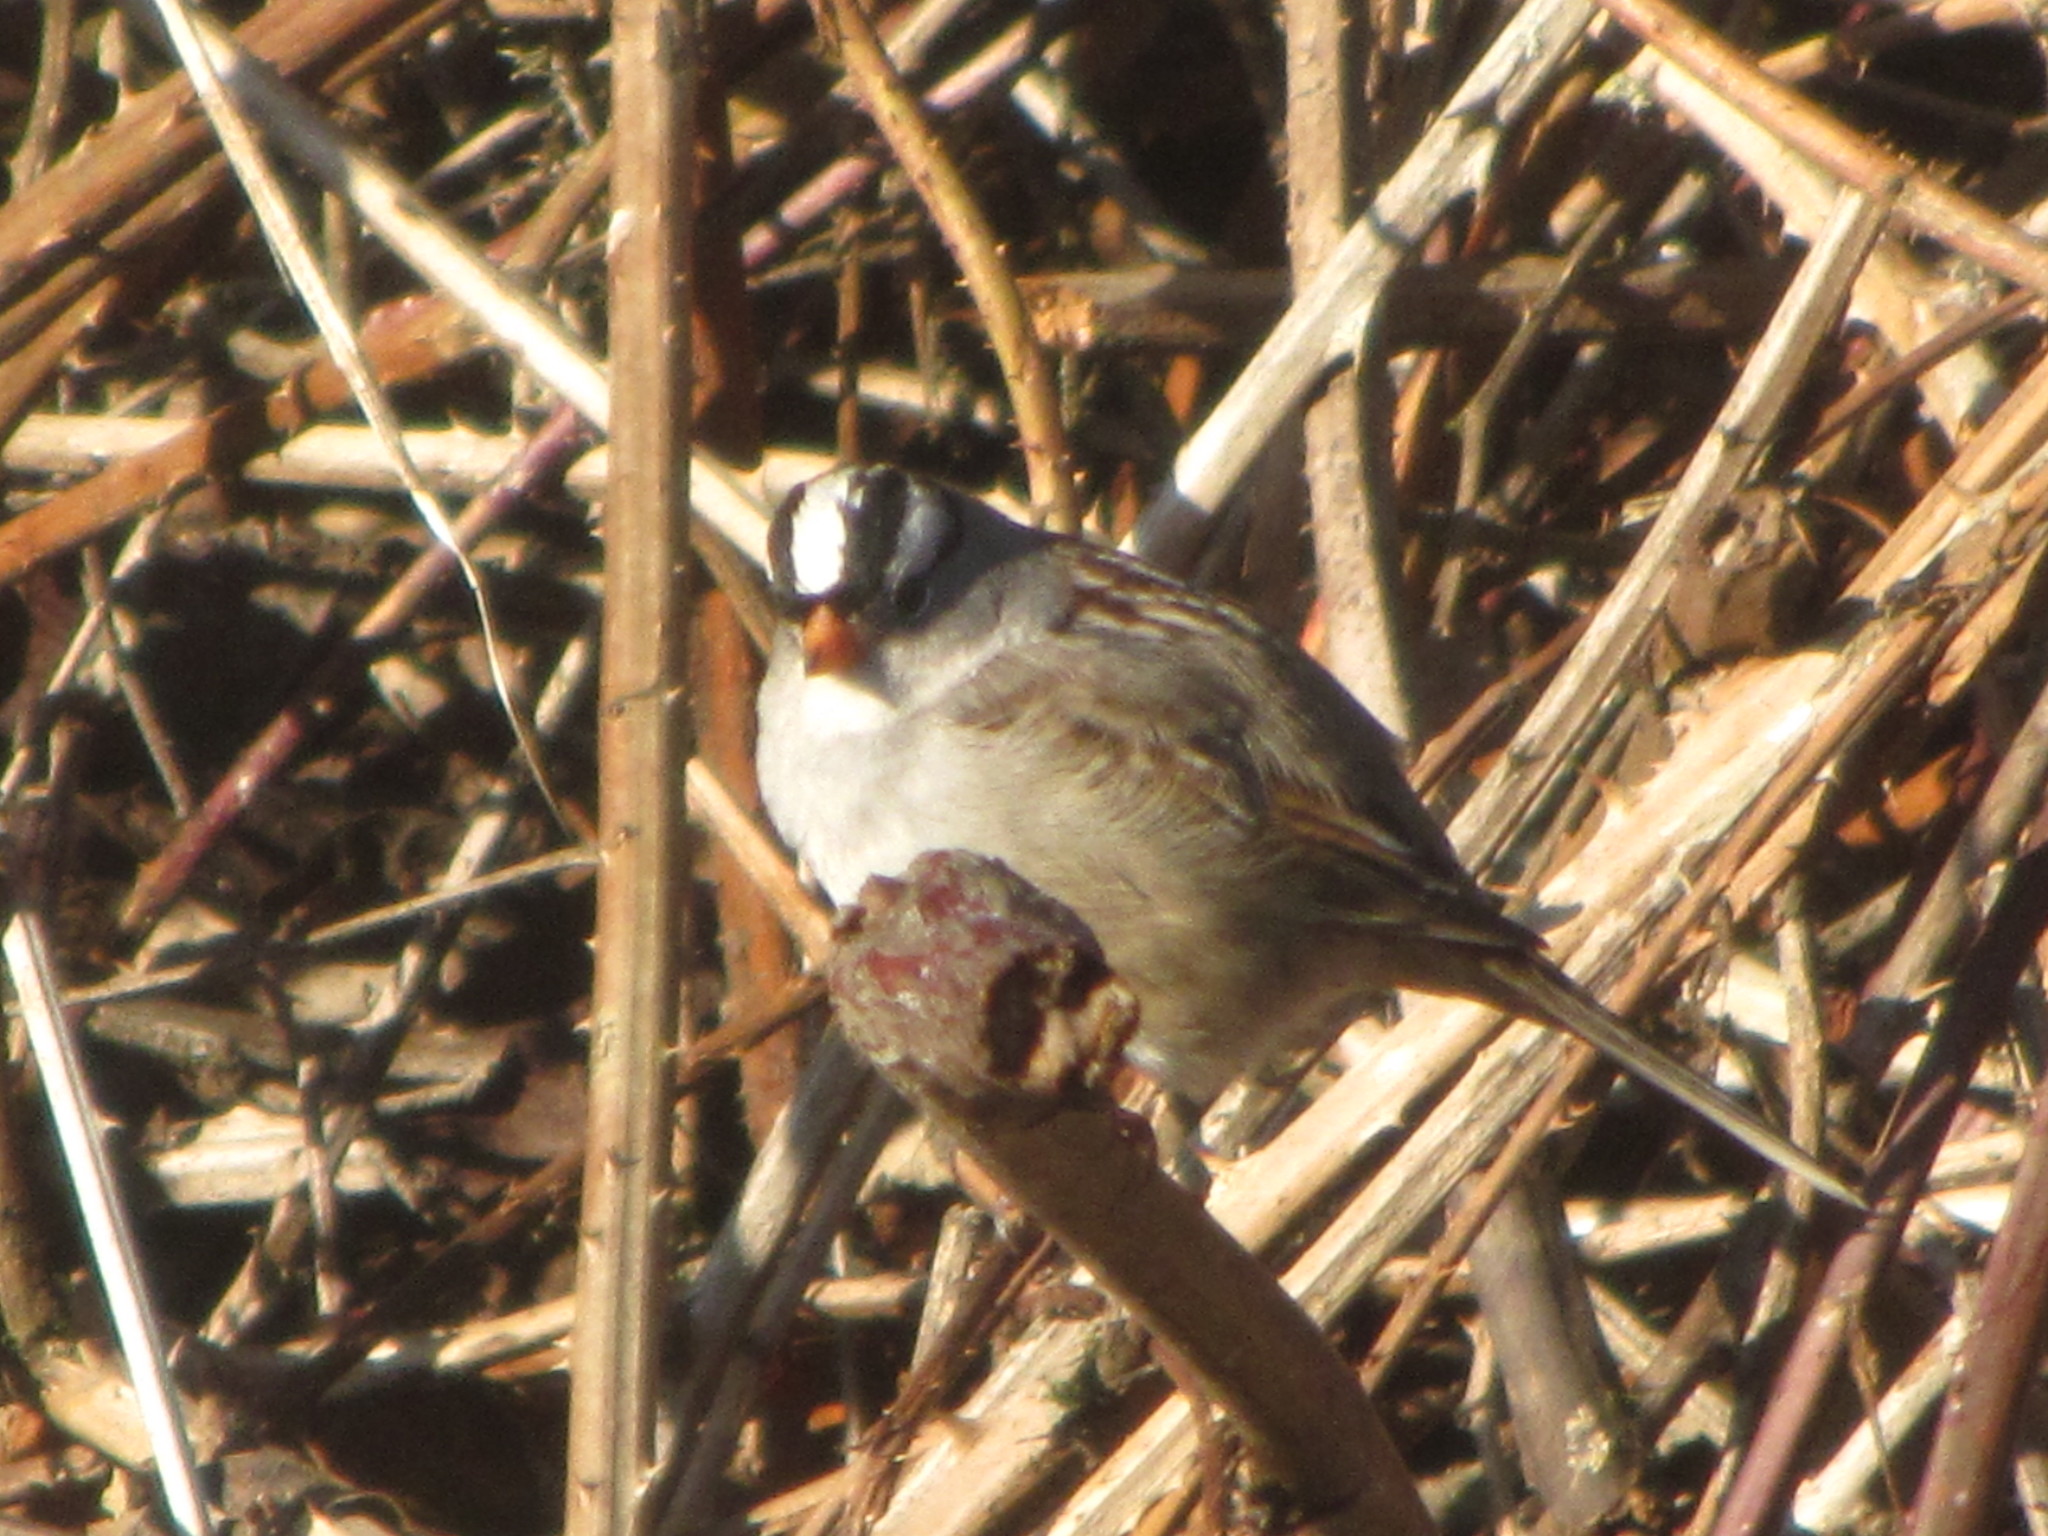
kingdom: Animalia
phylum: Chordata
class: Aves
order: Passeriformes
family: Passerellidae
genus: Zonotrichia
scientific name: Zonotrichia leucophrys
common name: White-crowned sparrow
